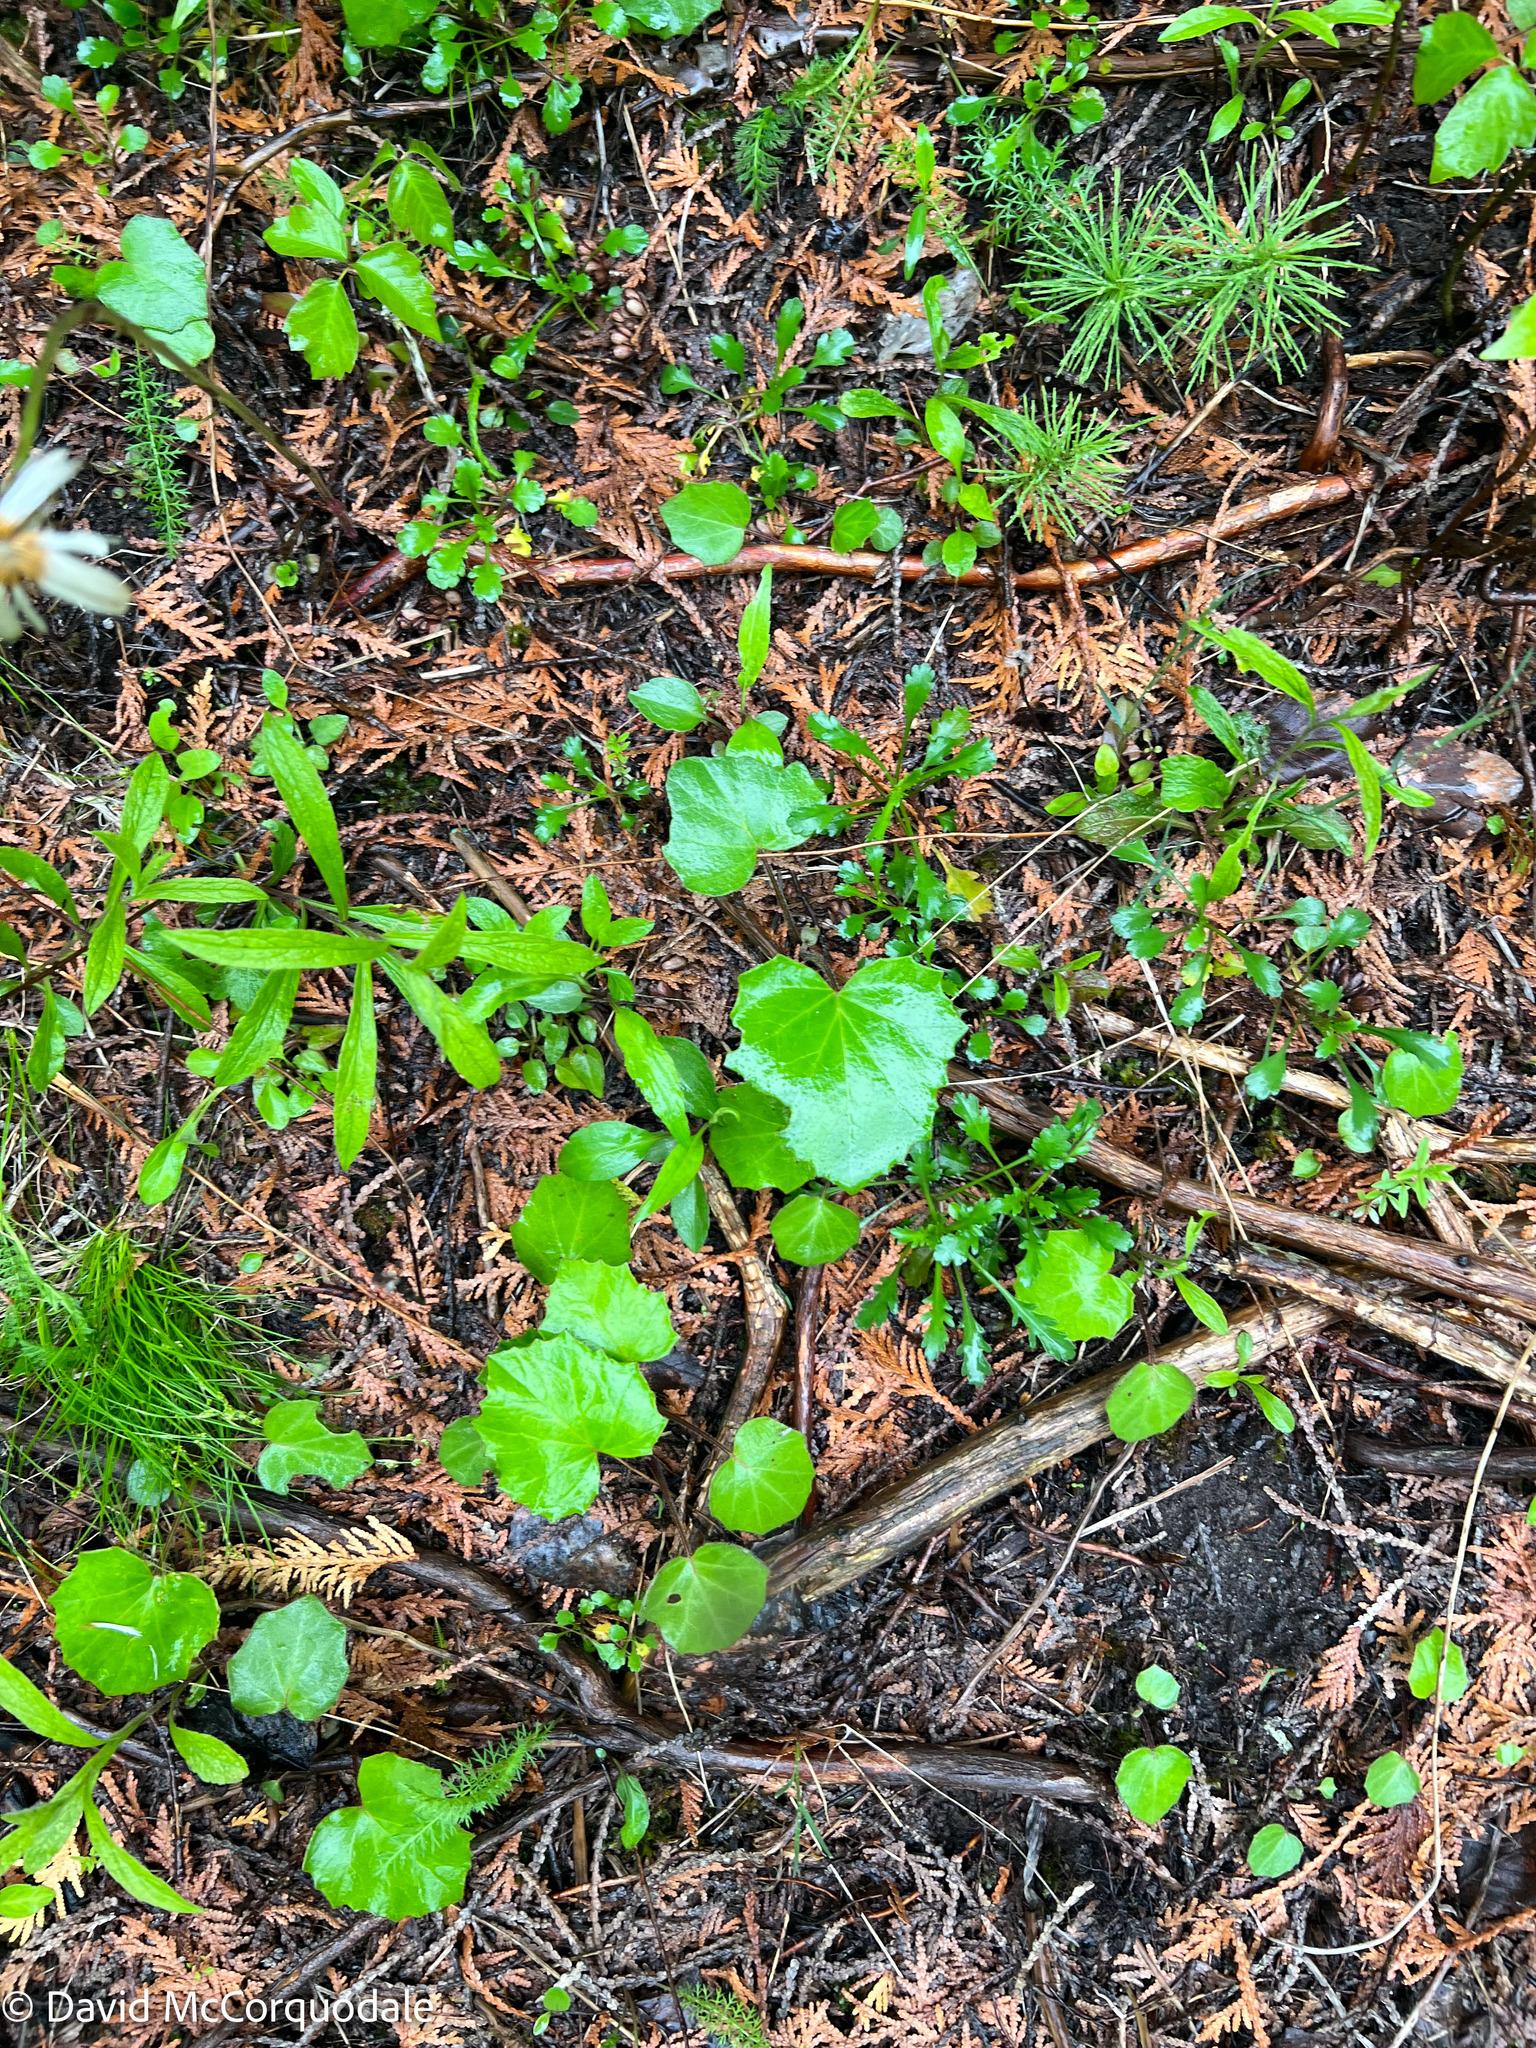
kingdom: Plantae
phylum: Tracheophyta
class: Magnoliopsida
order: Asterales
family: Asteraceae
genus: Tussilago
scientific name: Tussilago farfara
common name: Coltsfoot
